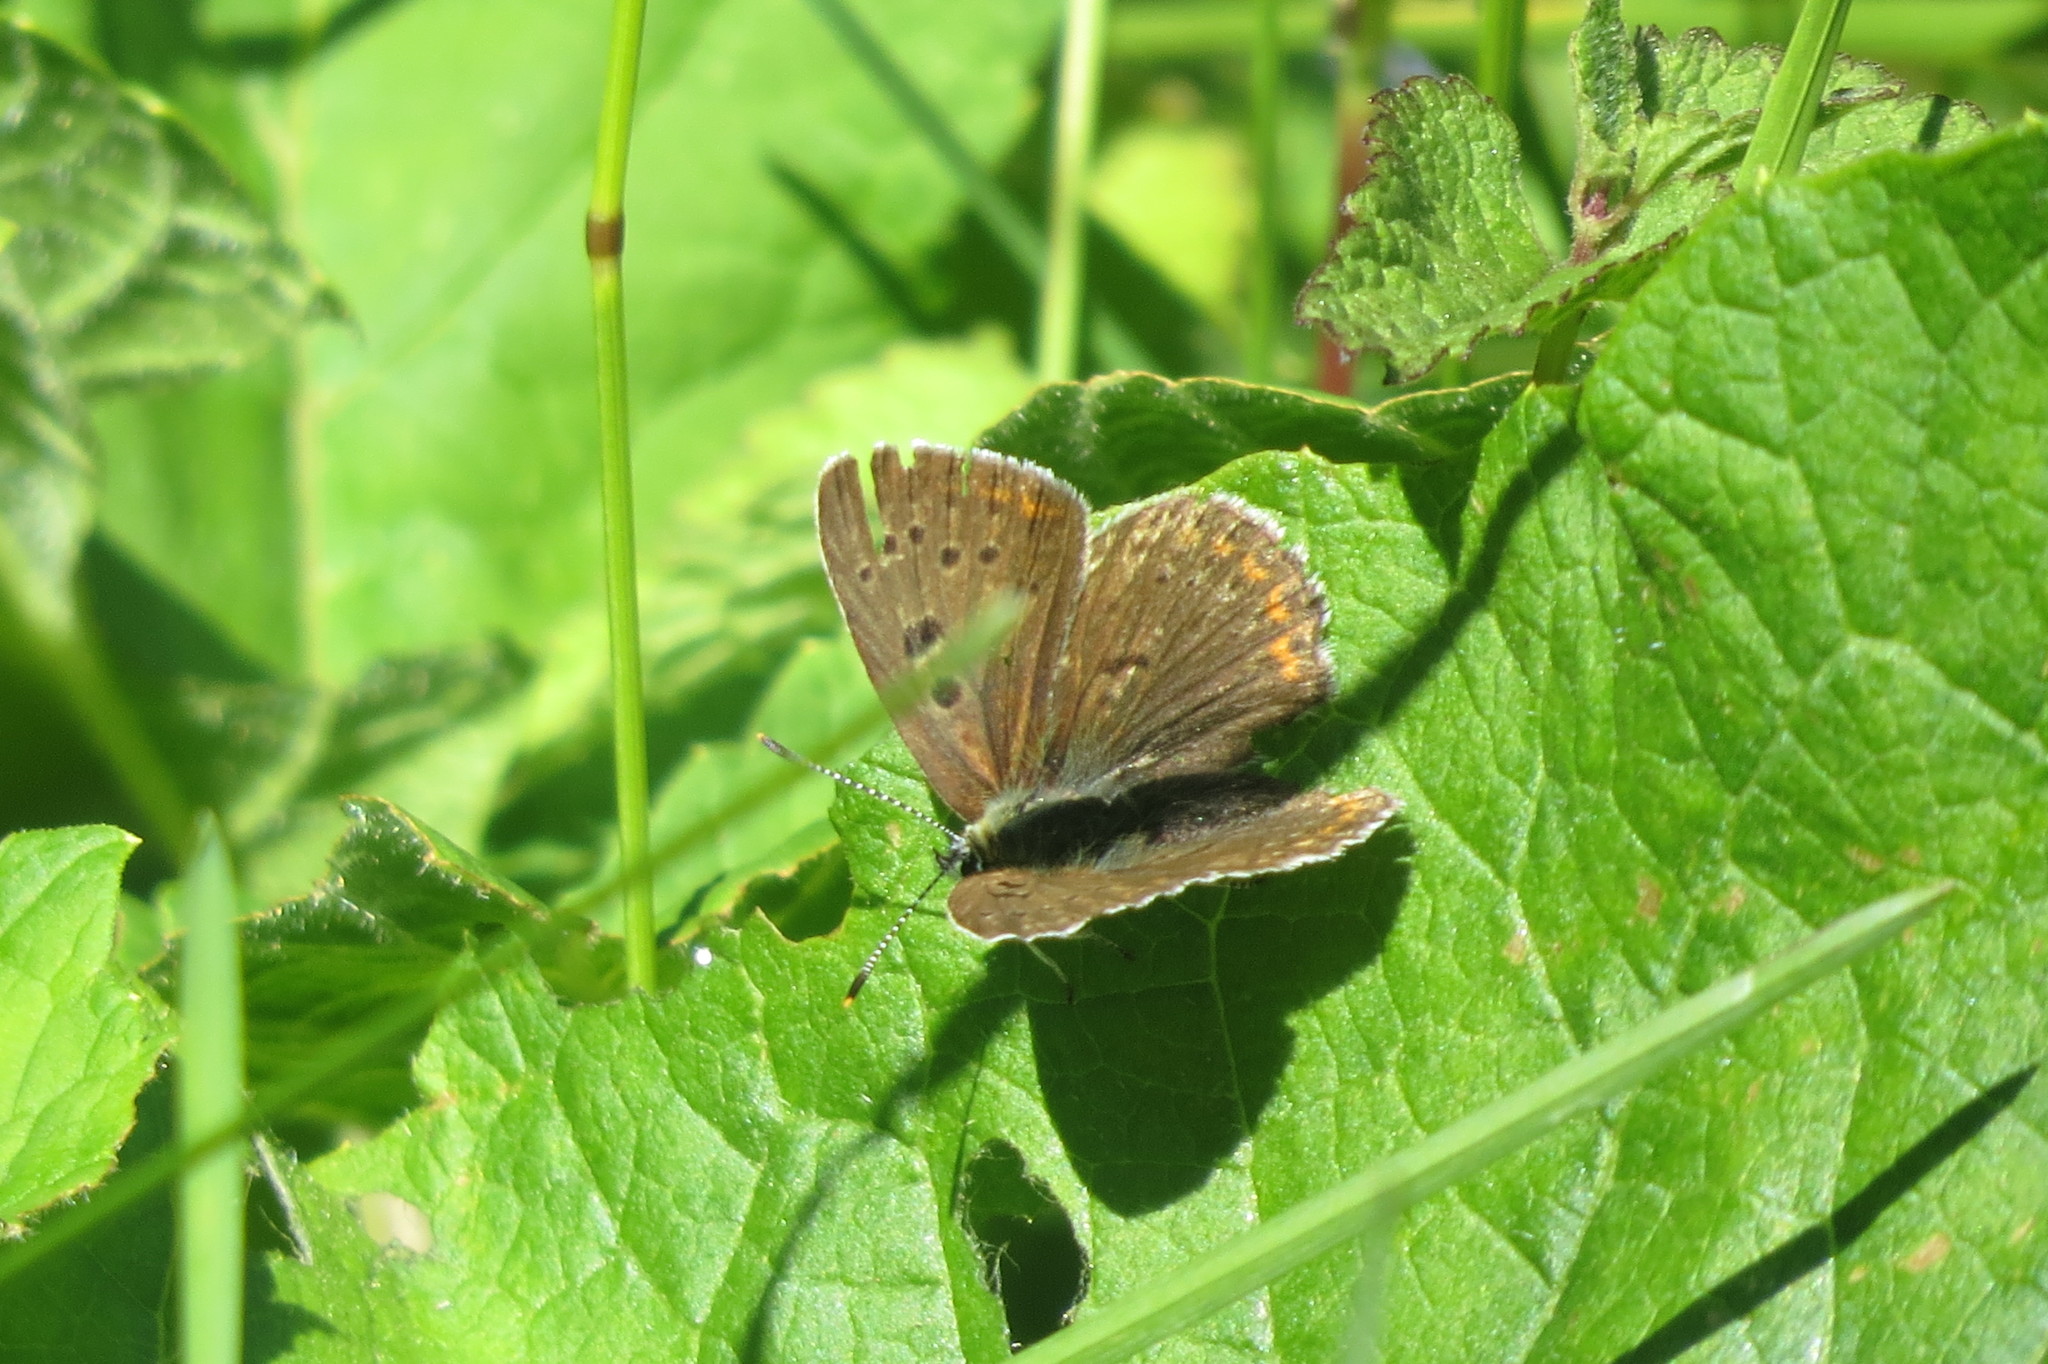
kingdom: Animalia
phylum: Arthropoda
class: Insecta
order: Lepidoptera
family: Lycaenidae
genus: Loweia
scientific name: Loweia tityrus
